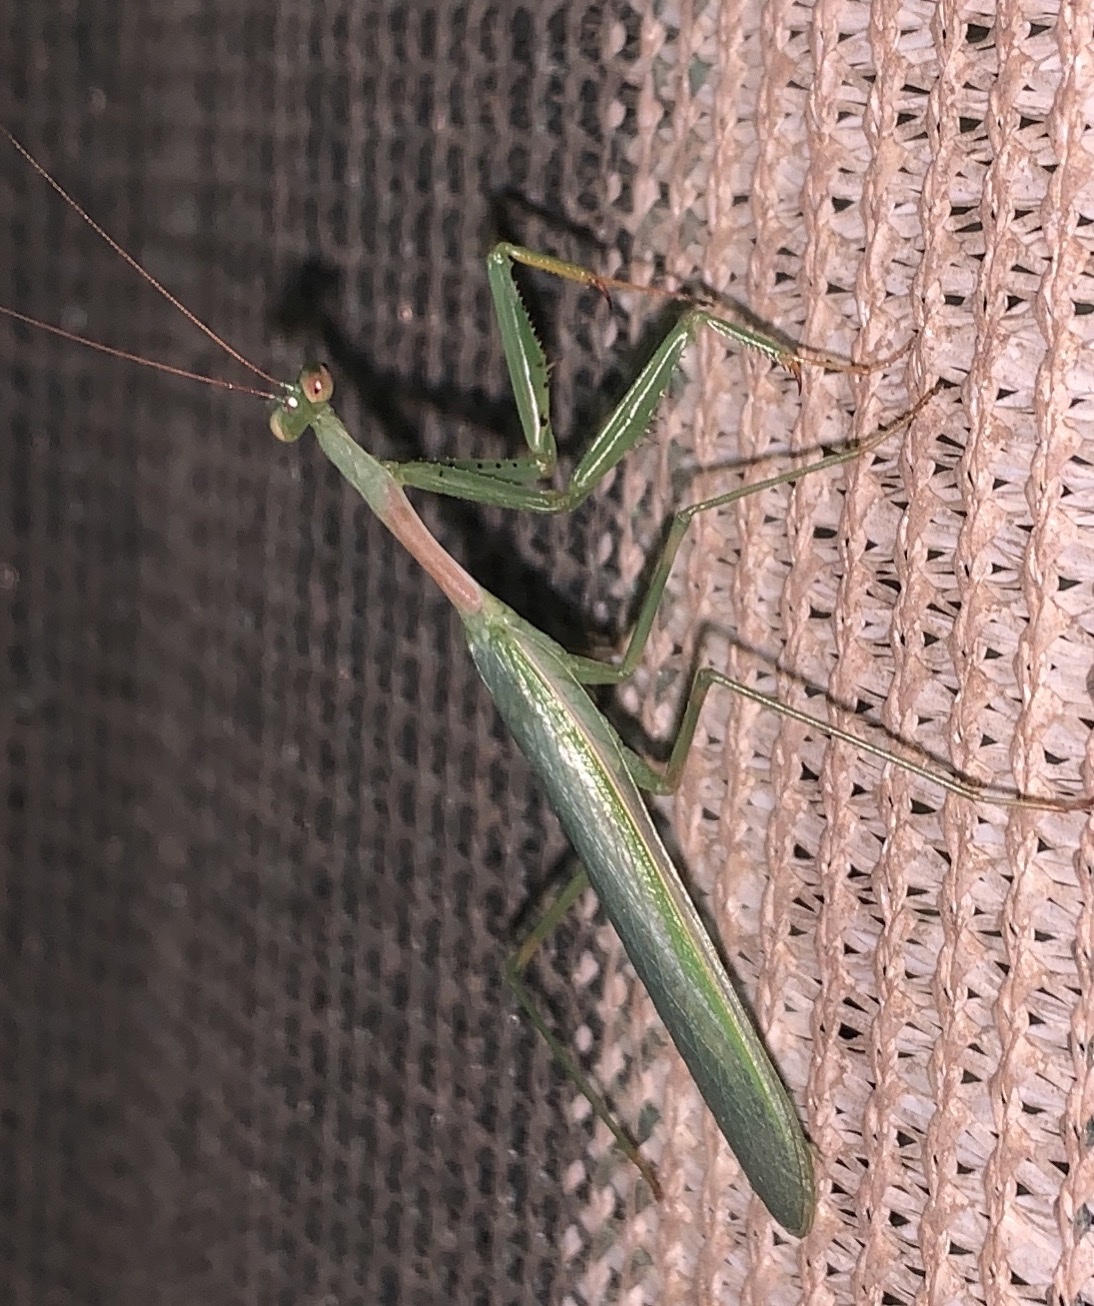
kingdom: Animalia
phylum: Arthropoda
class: Insecta
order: Mantodea
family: Miomantidae
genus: Miomantis
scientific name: Miomantis caffra
